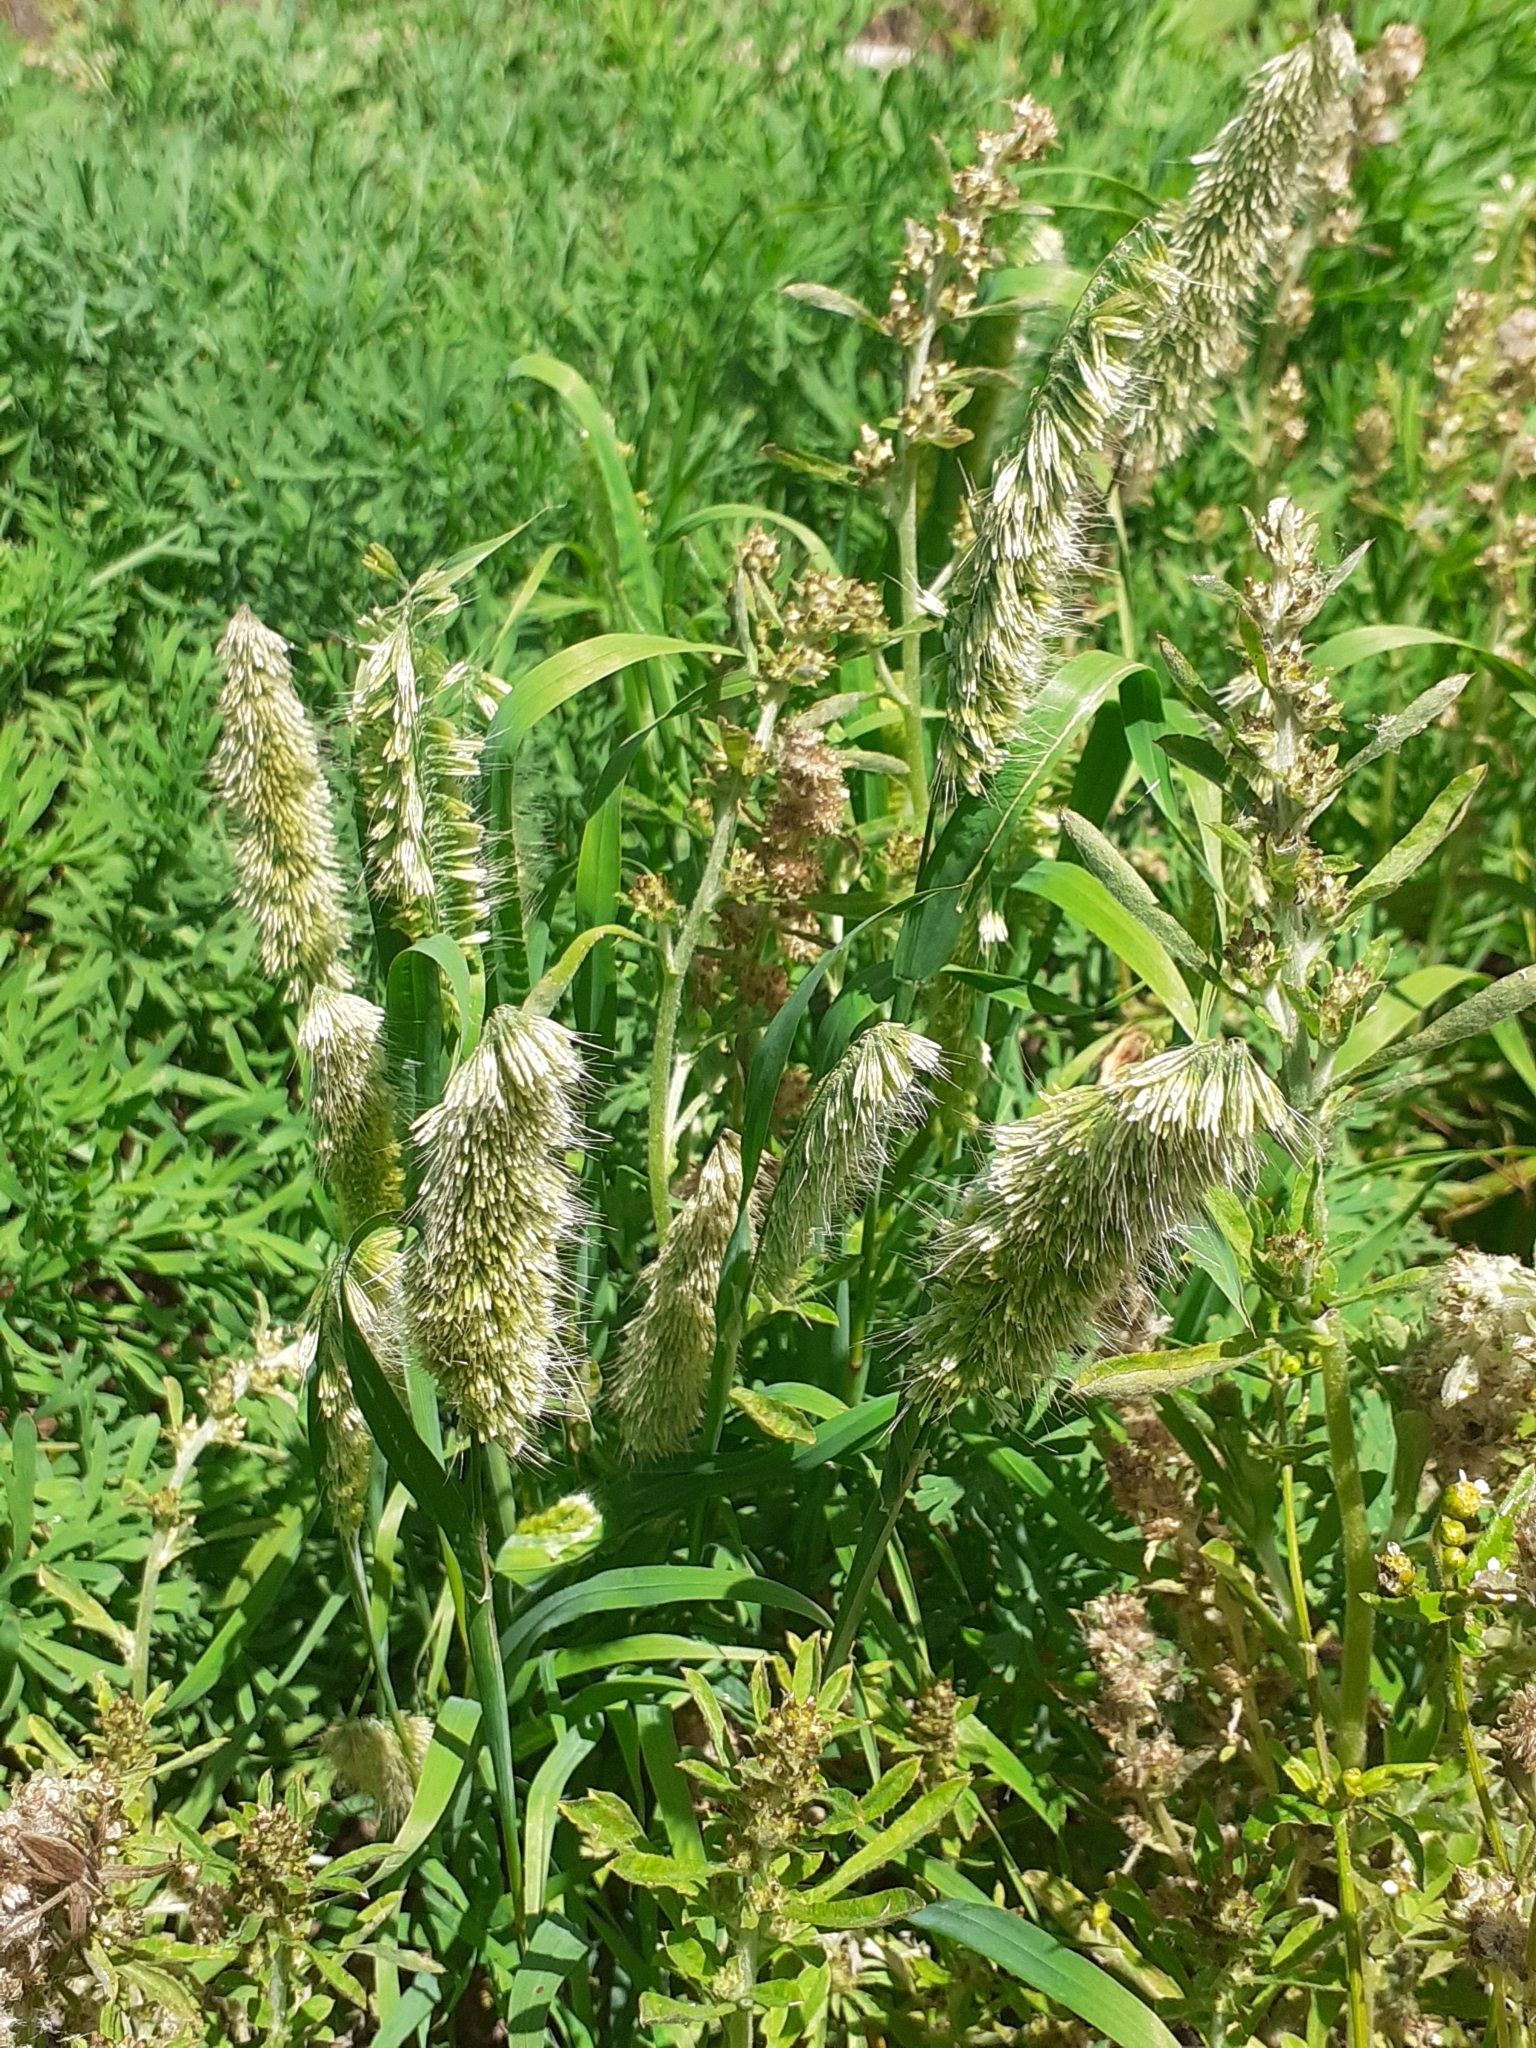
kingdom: Plantae
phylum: Tracheophyta
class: Liliopsida
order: Poales
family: Poaceae
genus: Lamarckia
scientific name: Lamarckia aurea
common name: Golden dog's-tail
